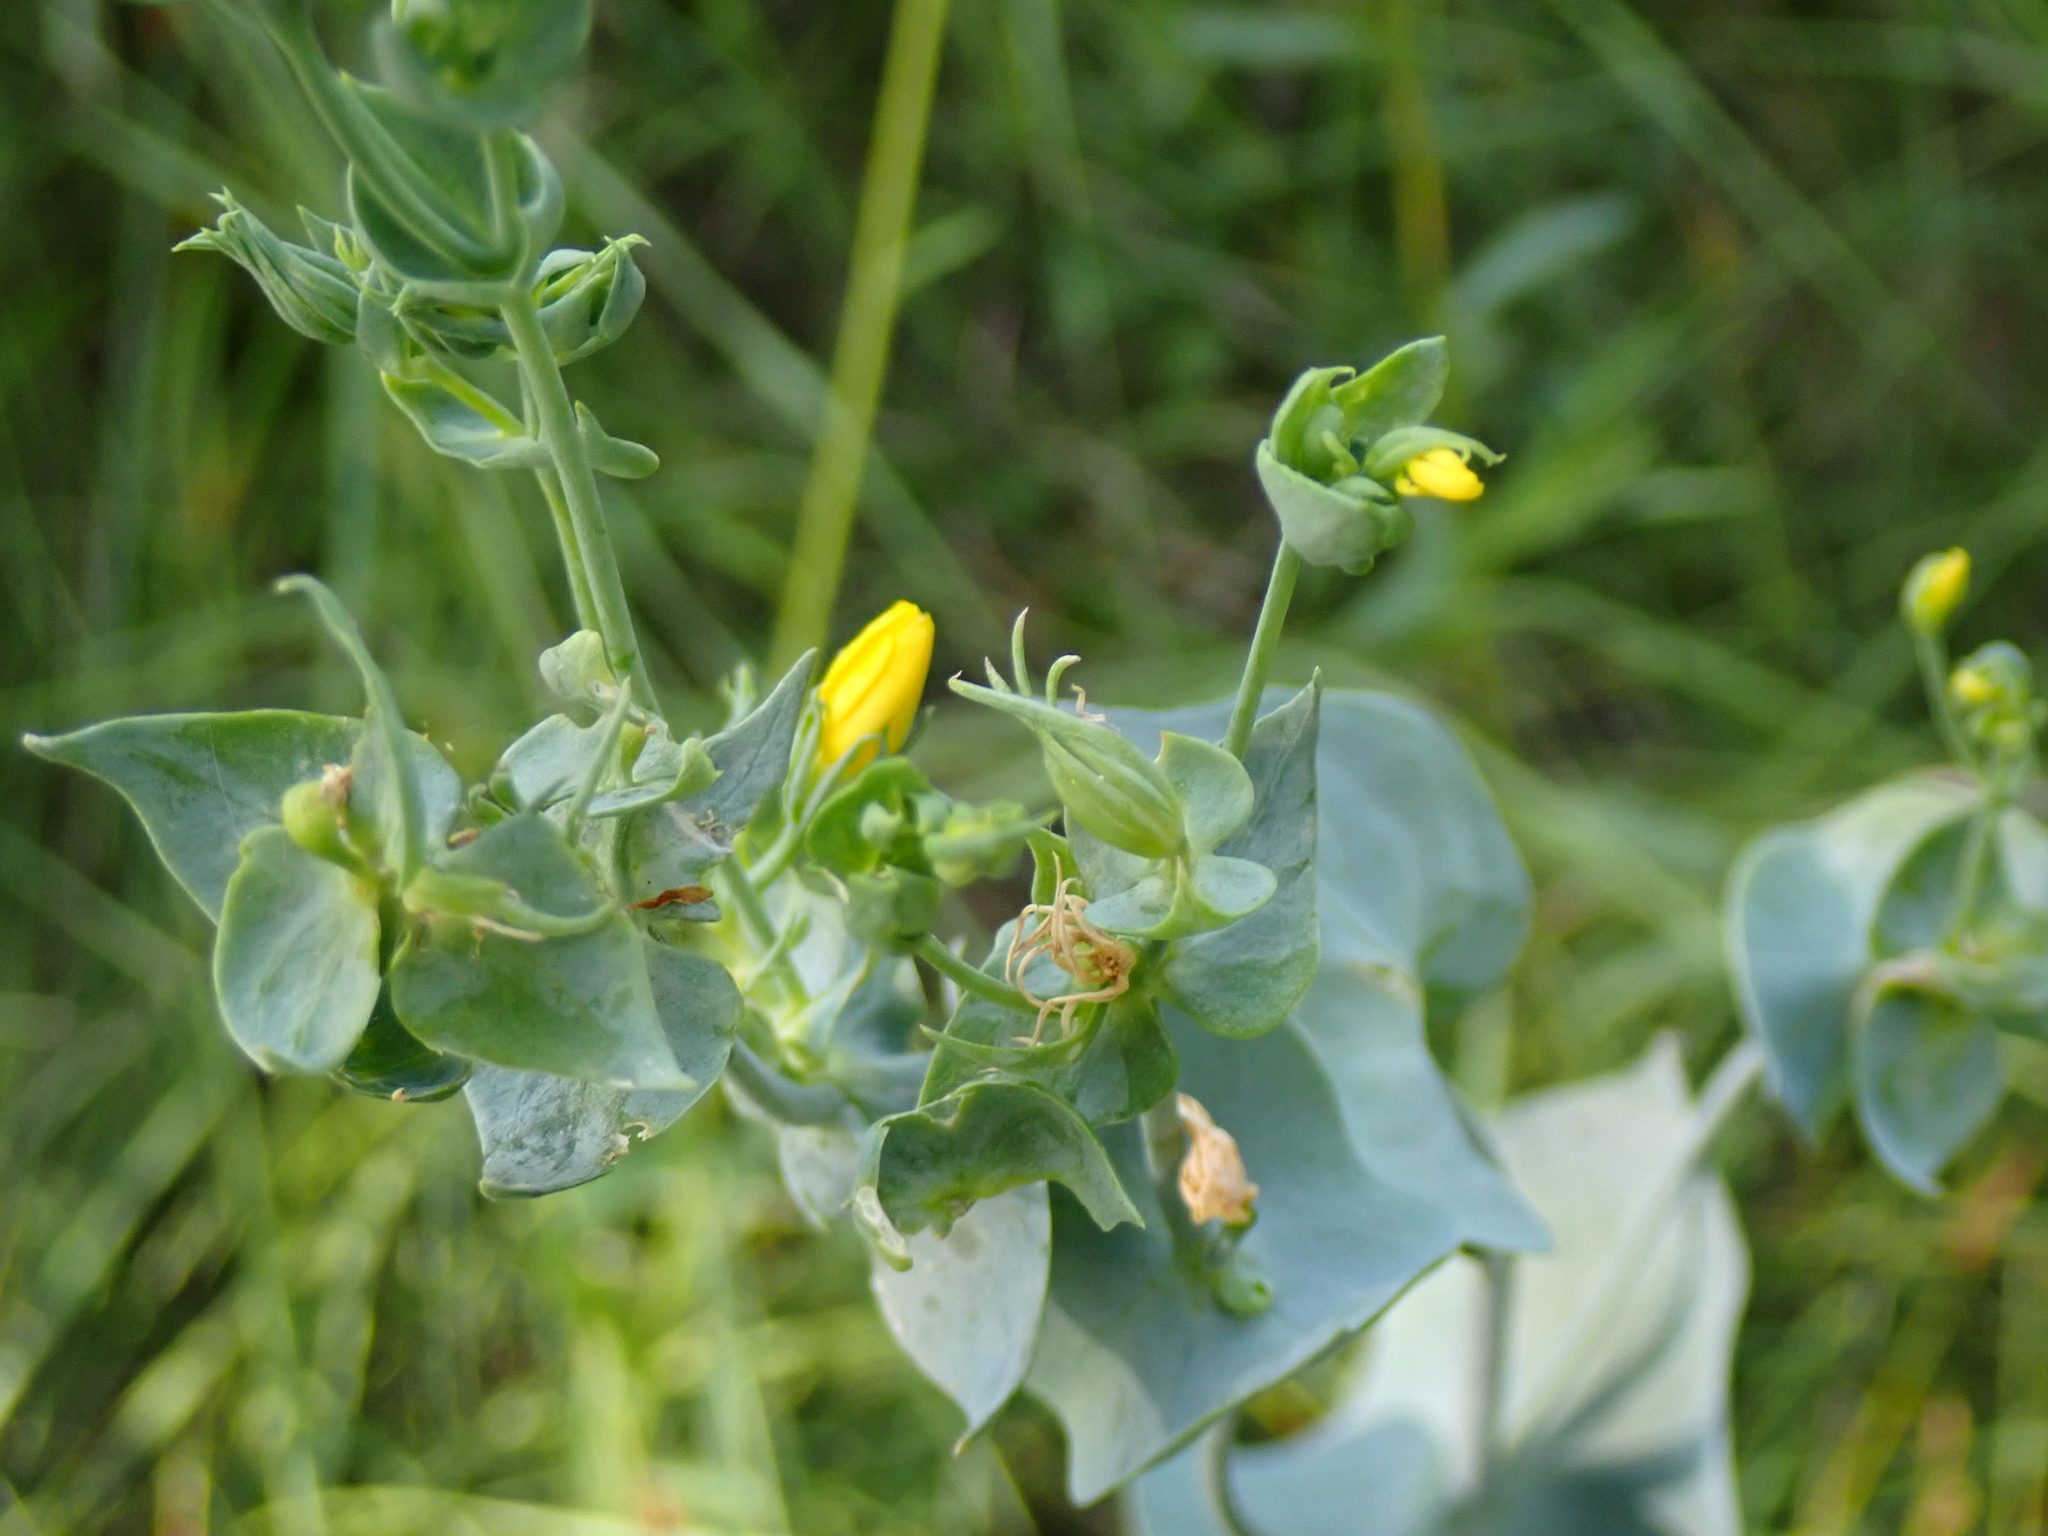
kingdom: Plantae
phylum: Tracheophyta
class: Magnoliopsida
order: Gentianales
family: Gentianaceae
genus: Blackstonia
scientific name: Blackstonia perfoliata
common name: Yellow-wort
